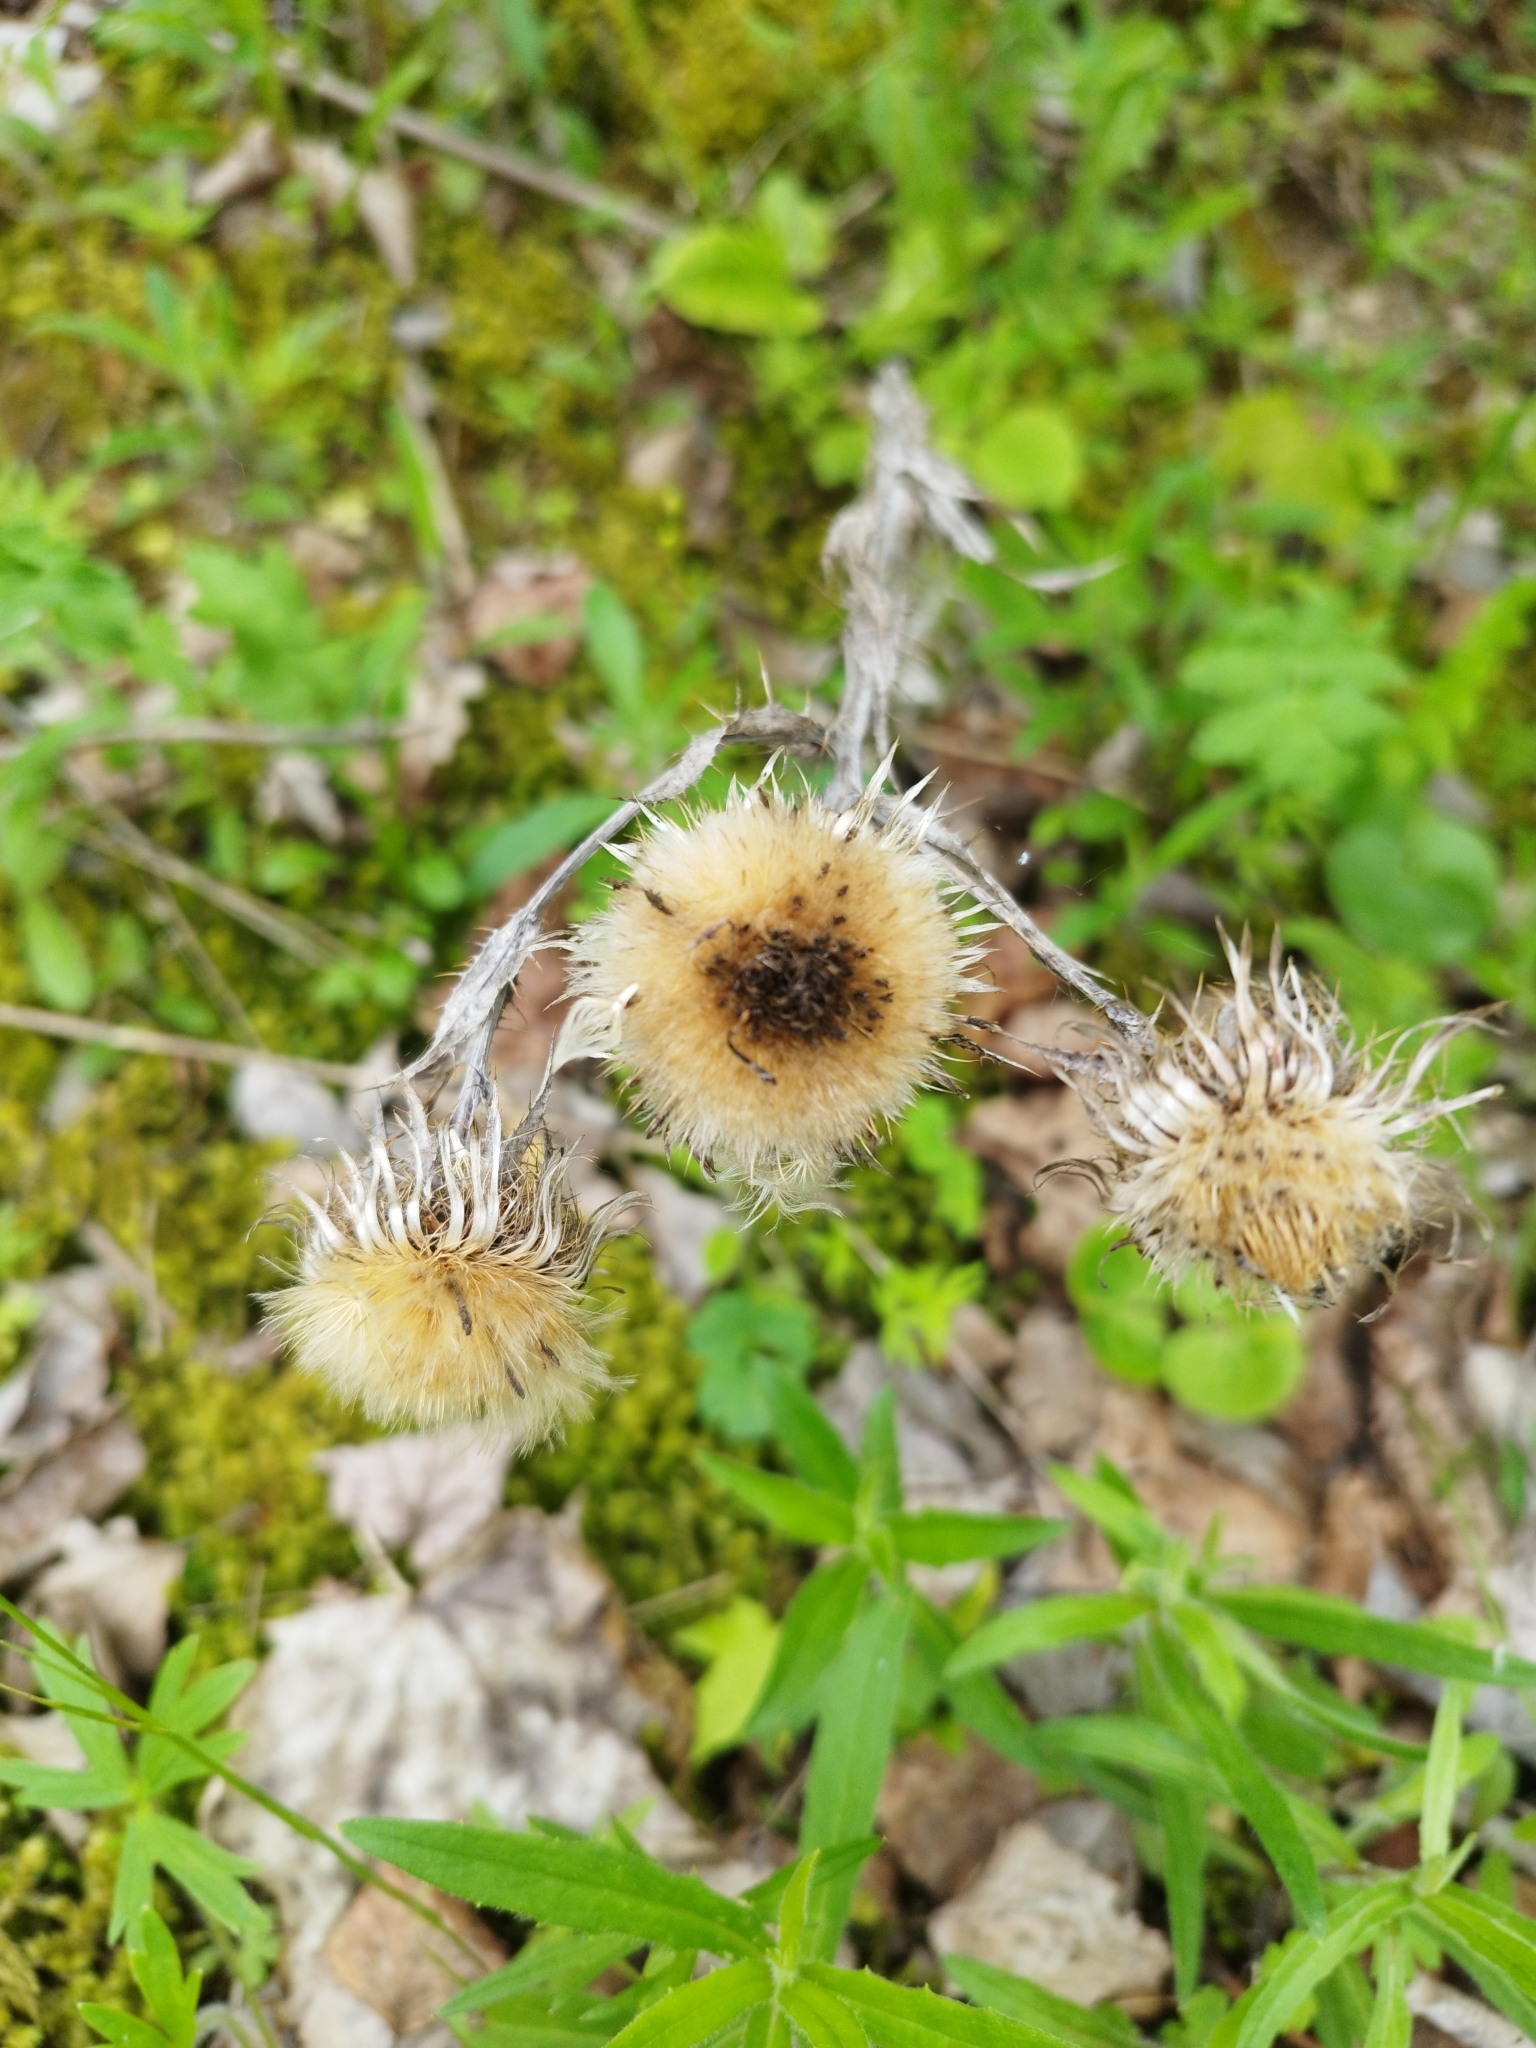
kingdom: Plantae
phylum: Tracheophyta
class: Magnoliopsida
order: Asterales
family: Asteraceae
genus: Carlina
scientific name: Carlina biebersteinii
